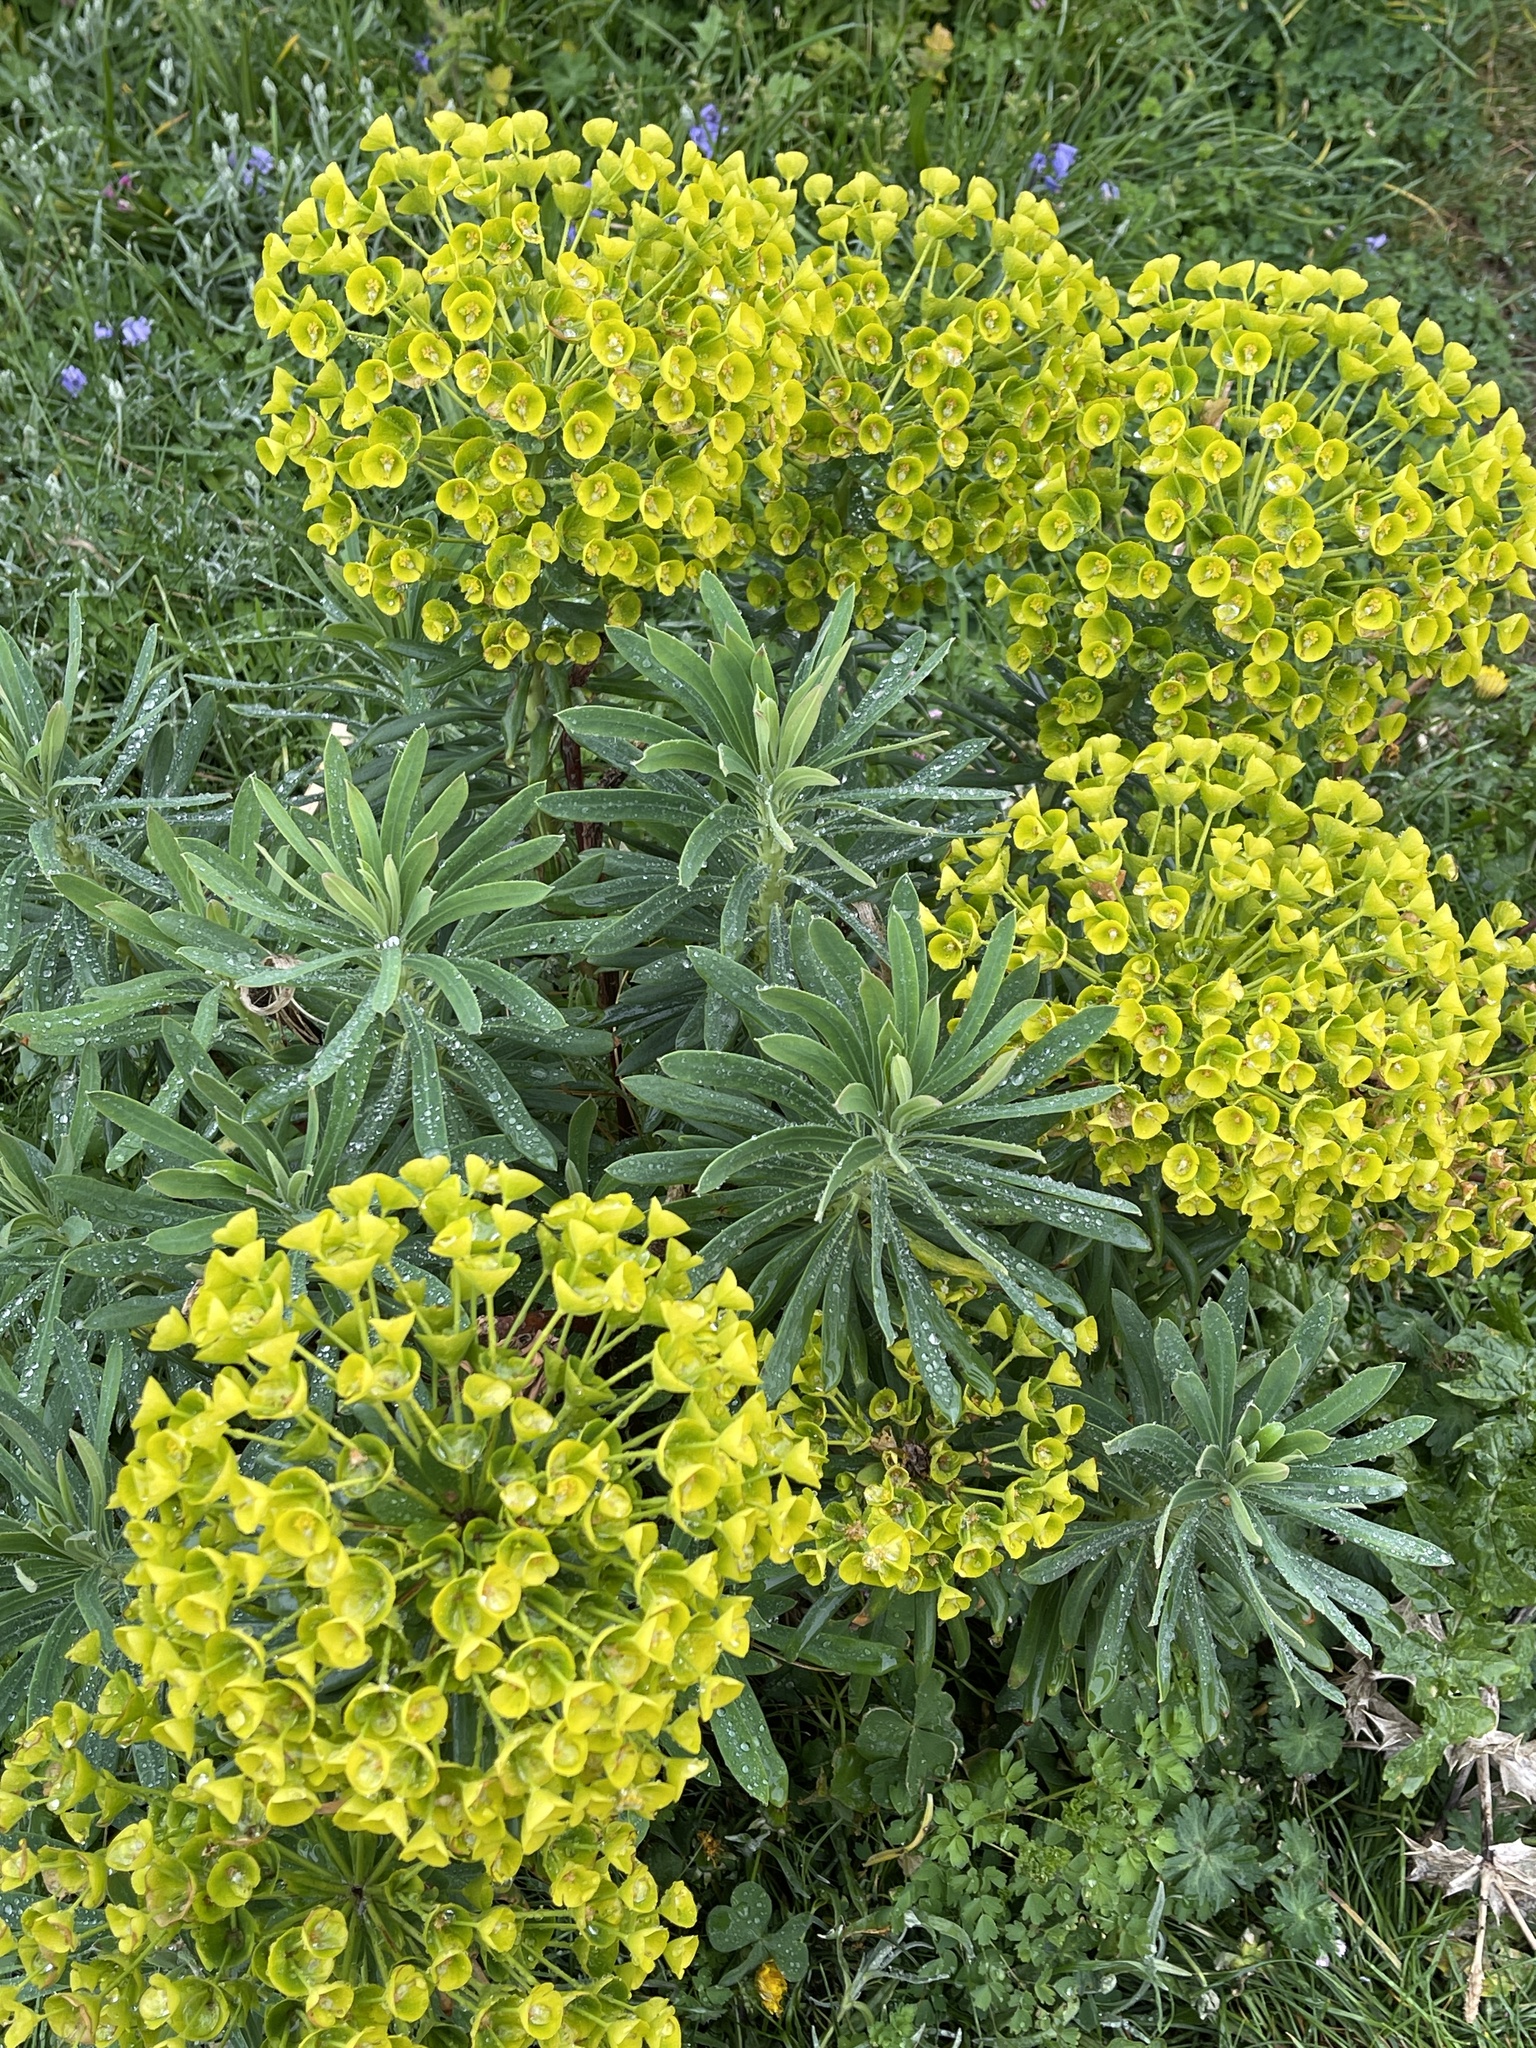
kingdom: Plantae
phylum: Tracheophyta
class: Magnoliopsida
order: Malpighiales
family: Euphorbiaceae
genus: Euphorbia
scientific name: Euphorbia characias
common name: Mediterranean spurge
